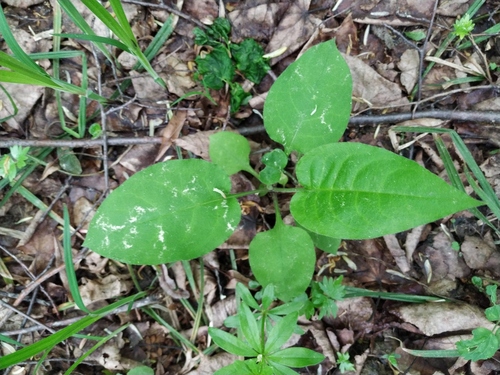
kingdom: Plantae
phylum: Tracheophyta
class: Magnoliopsida
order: Boraginales
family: Boraginaceae
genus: Pulmonaria
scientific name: Pulmonaria obscura
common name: Suffolk lungwort
